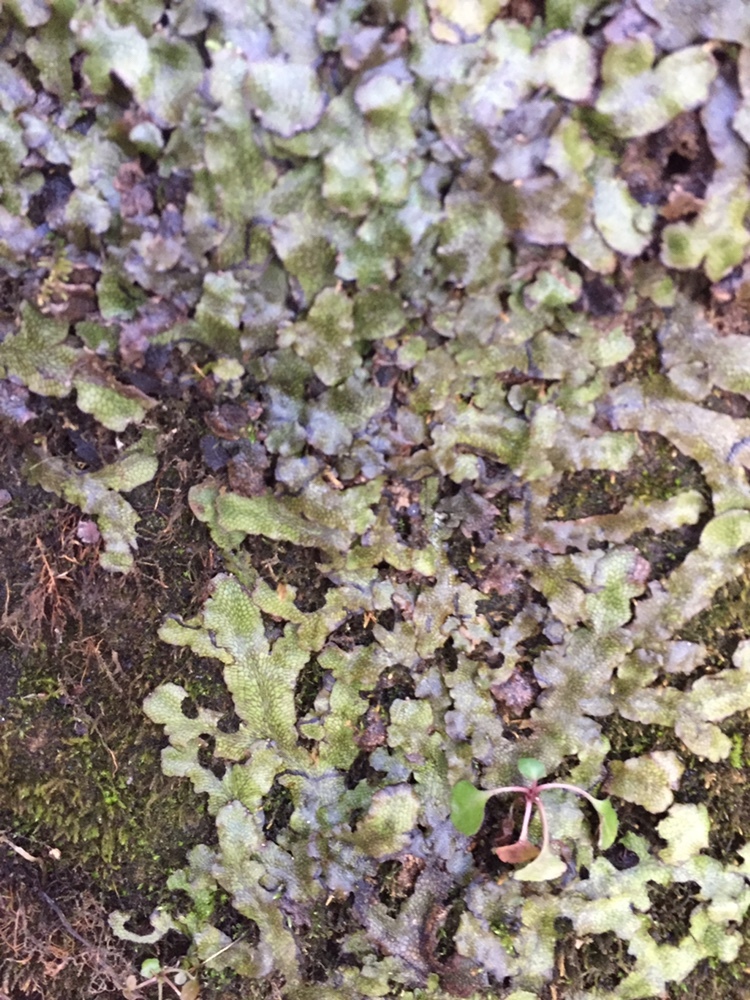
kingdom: Plantae
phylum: Marchantiophyta
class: Marchantiopsida
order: Marchantiales
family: Conocephalaceae
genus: Conocephalum
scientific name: Conocephalum salebrosum
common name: Cat-tongue liverwort
